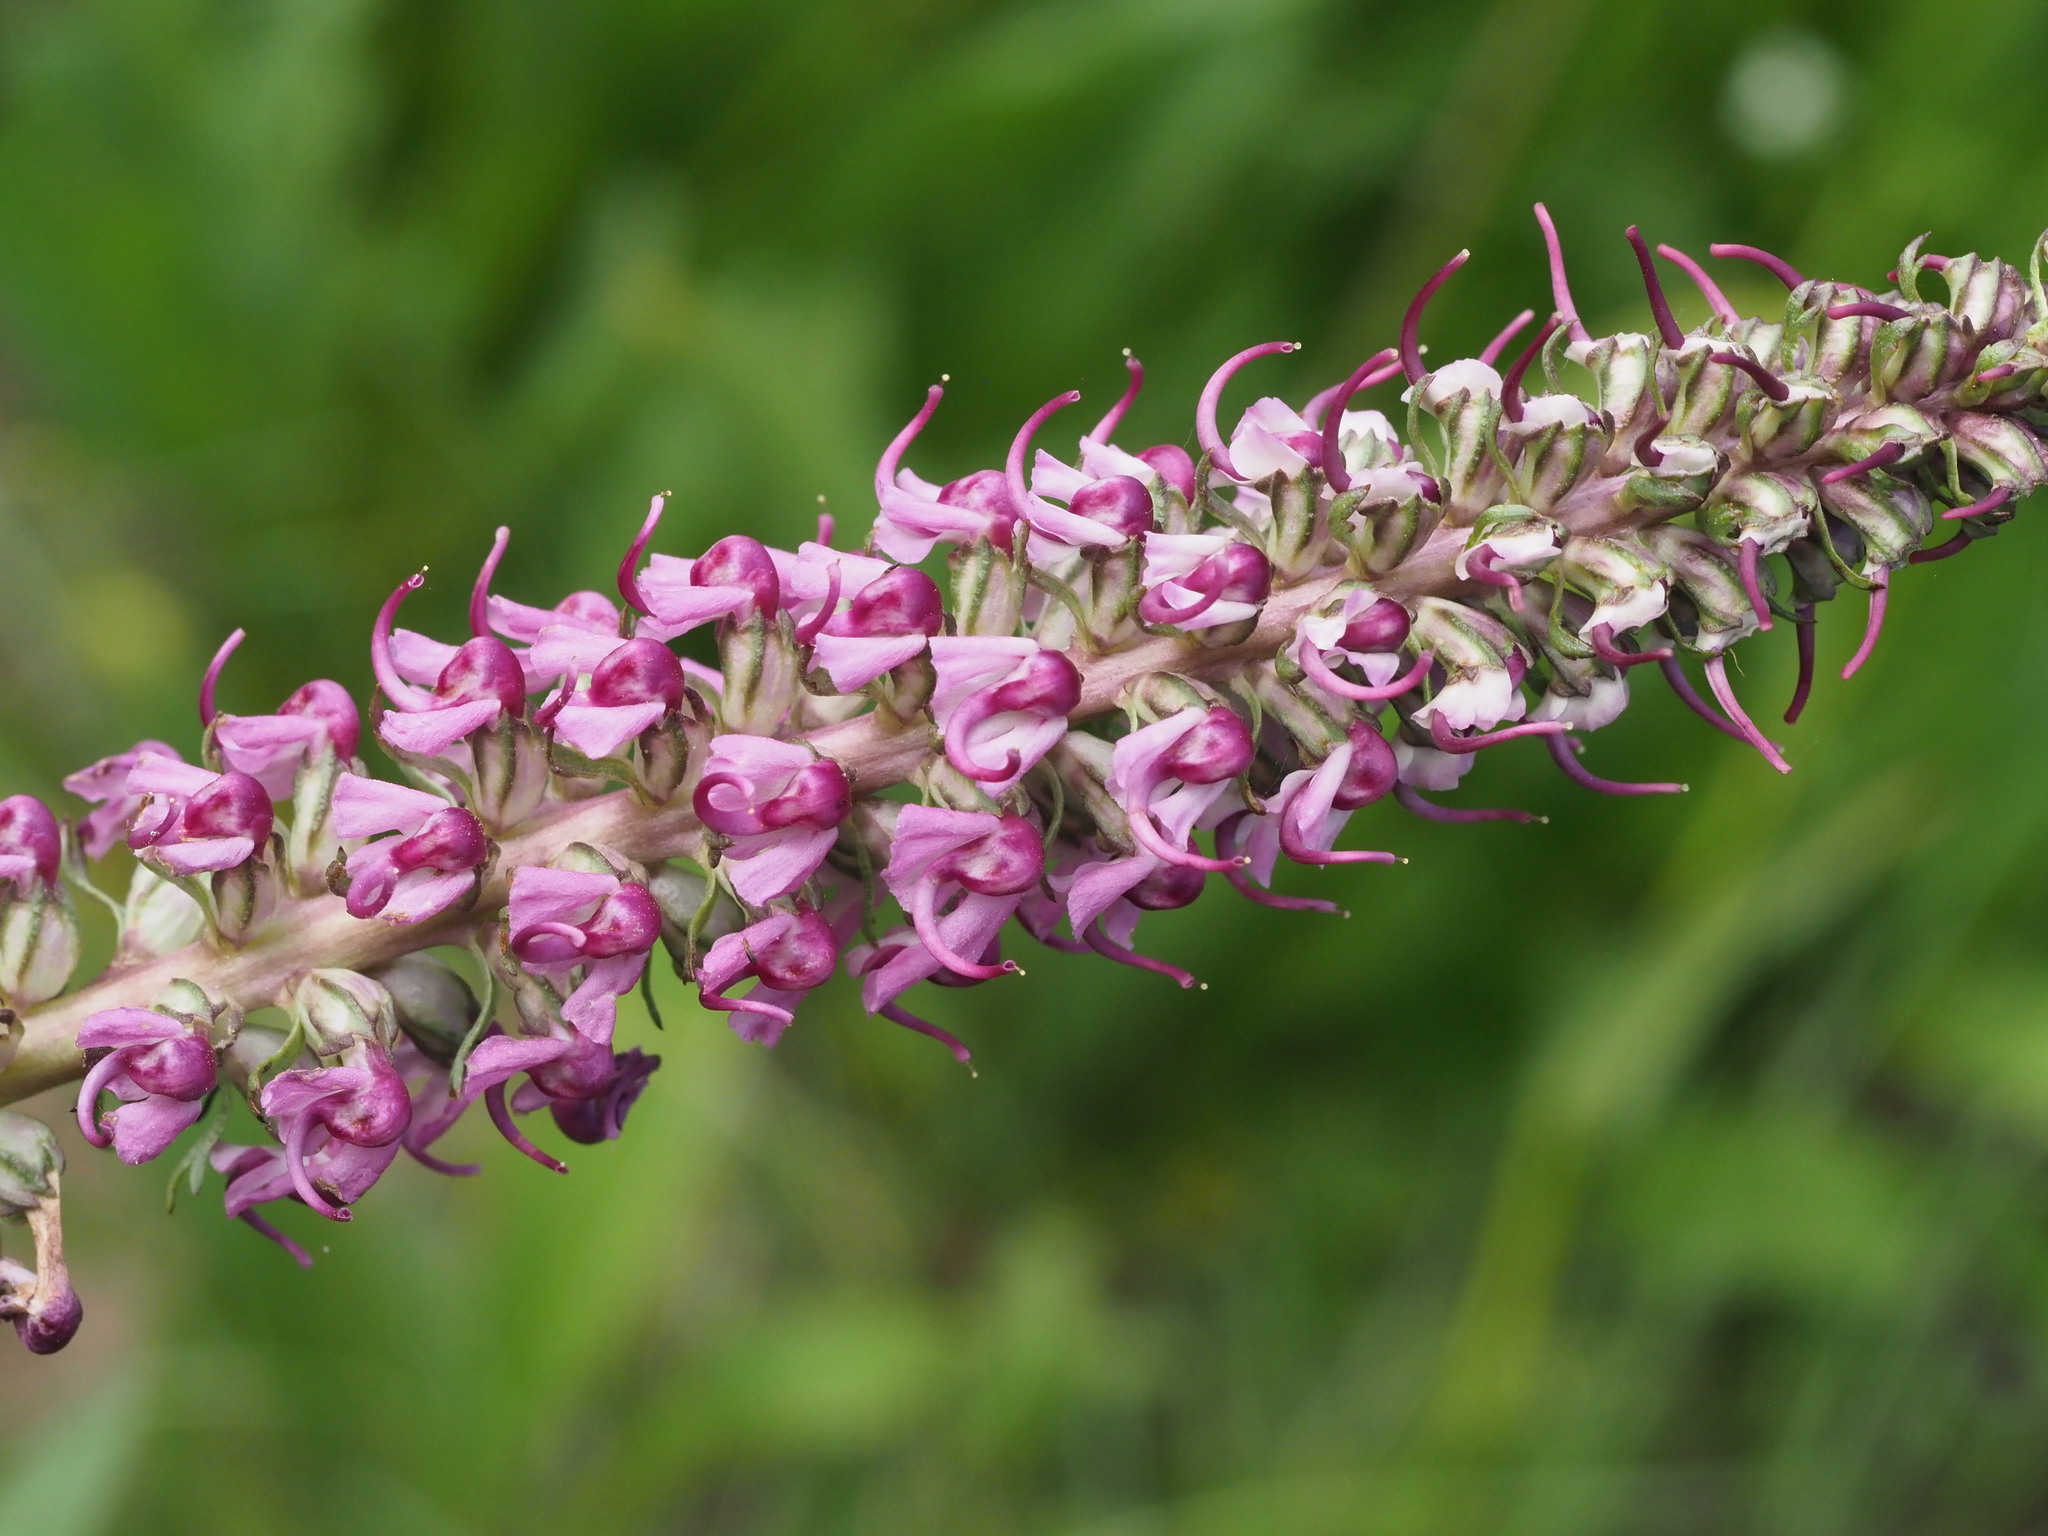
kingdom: Plantae
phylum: Tracheophyta
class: Magnoliopsida
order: Lamiales
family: Orobanchaceae
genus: Pedicularis
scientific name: Pedicularis groenlandica
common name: Elephant's-head
